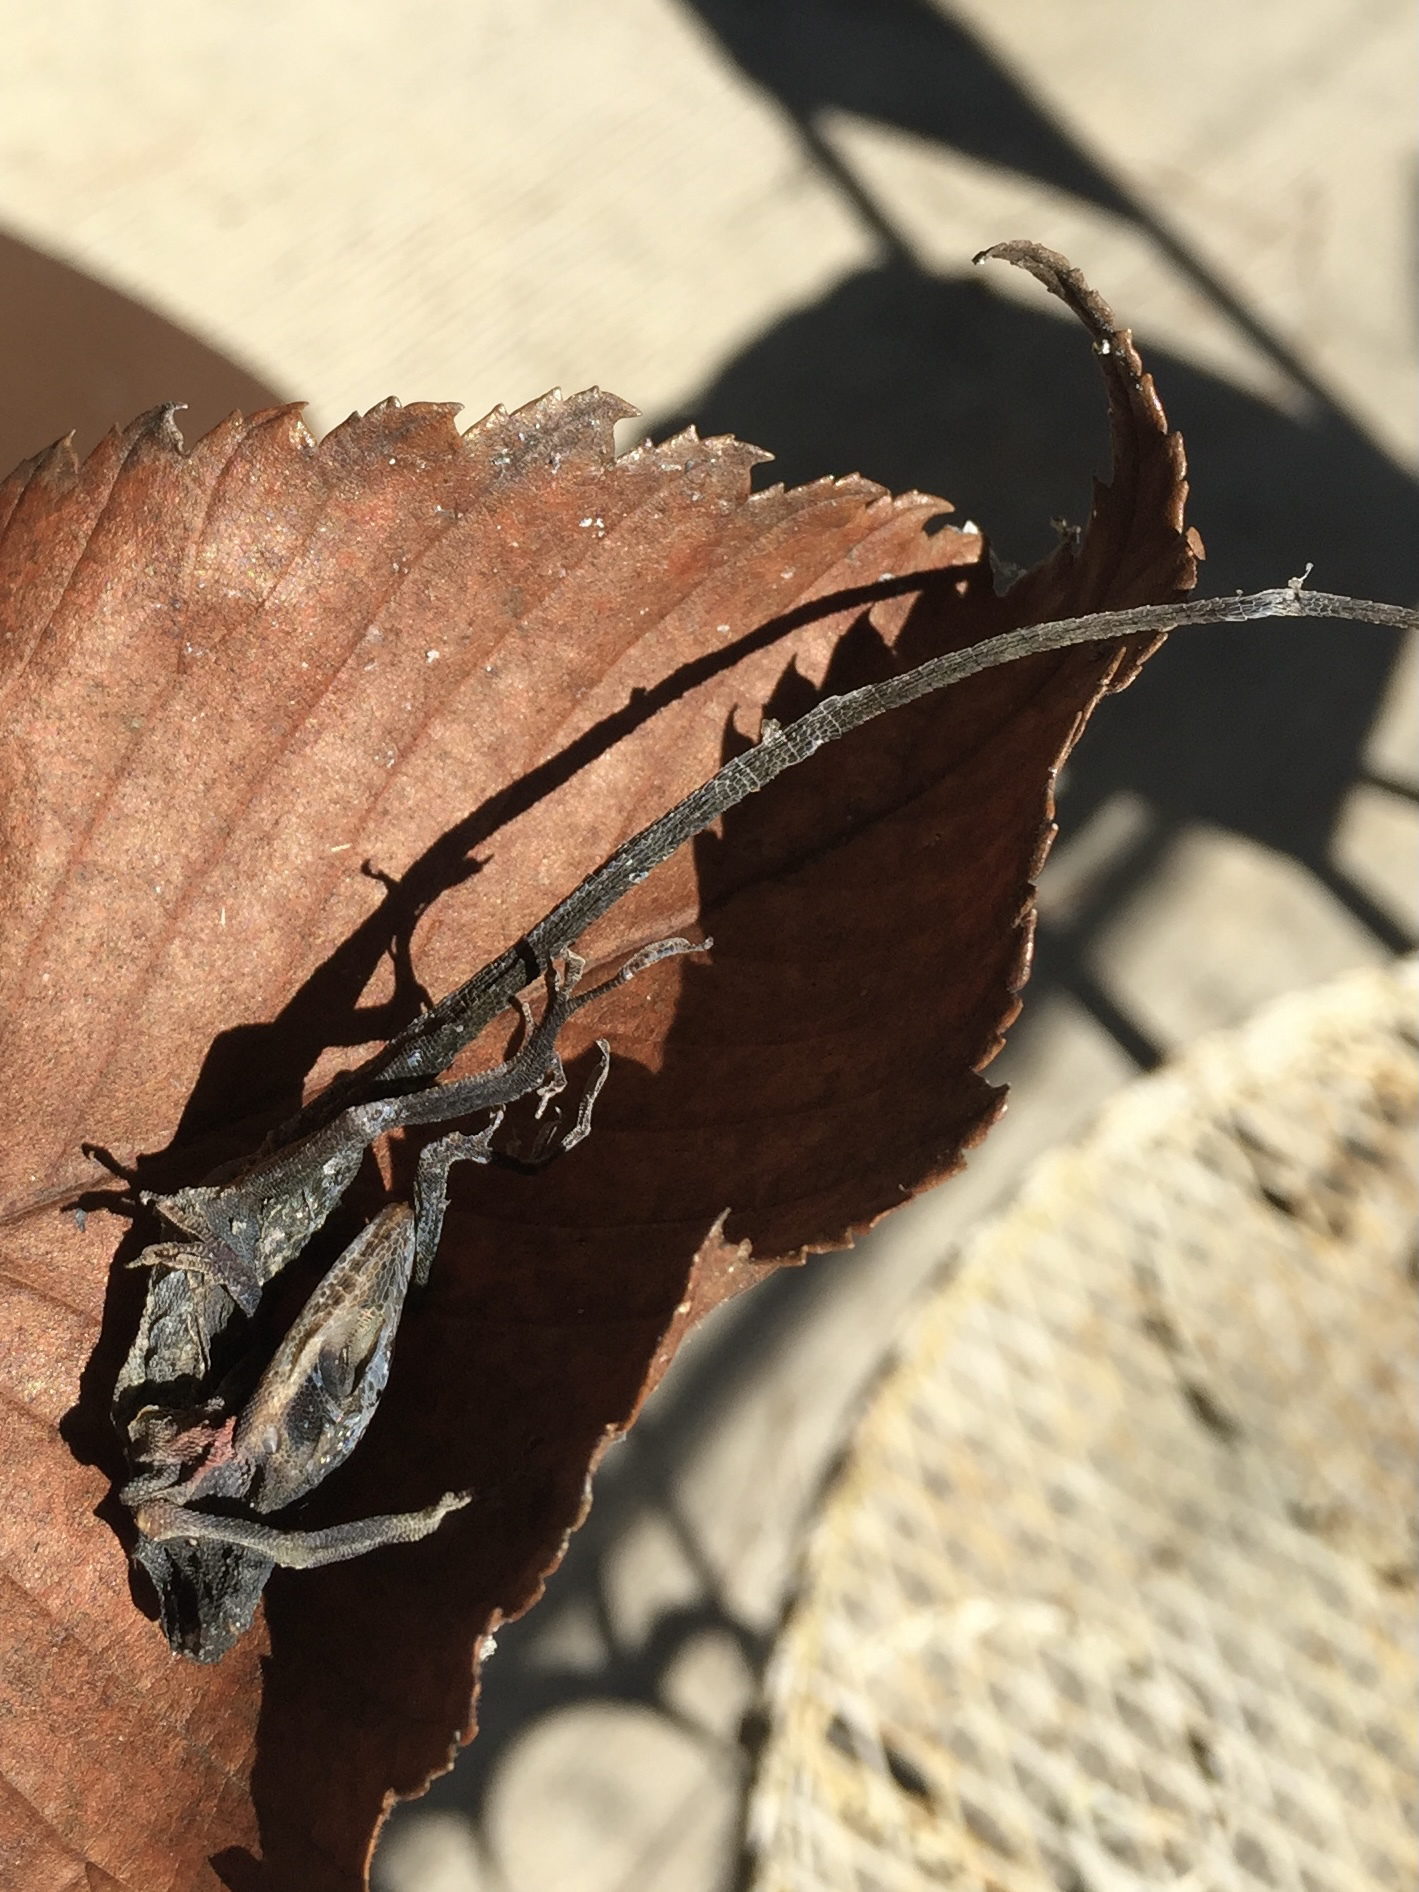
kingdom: Animalia
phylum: Chordata
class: Squamata
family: Dactyloidae
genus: Anolis
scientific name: Anolis carolinensis
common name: Green anole
